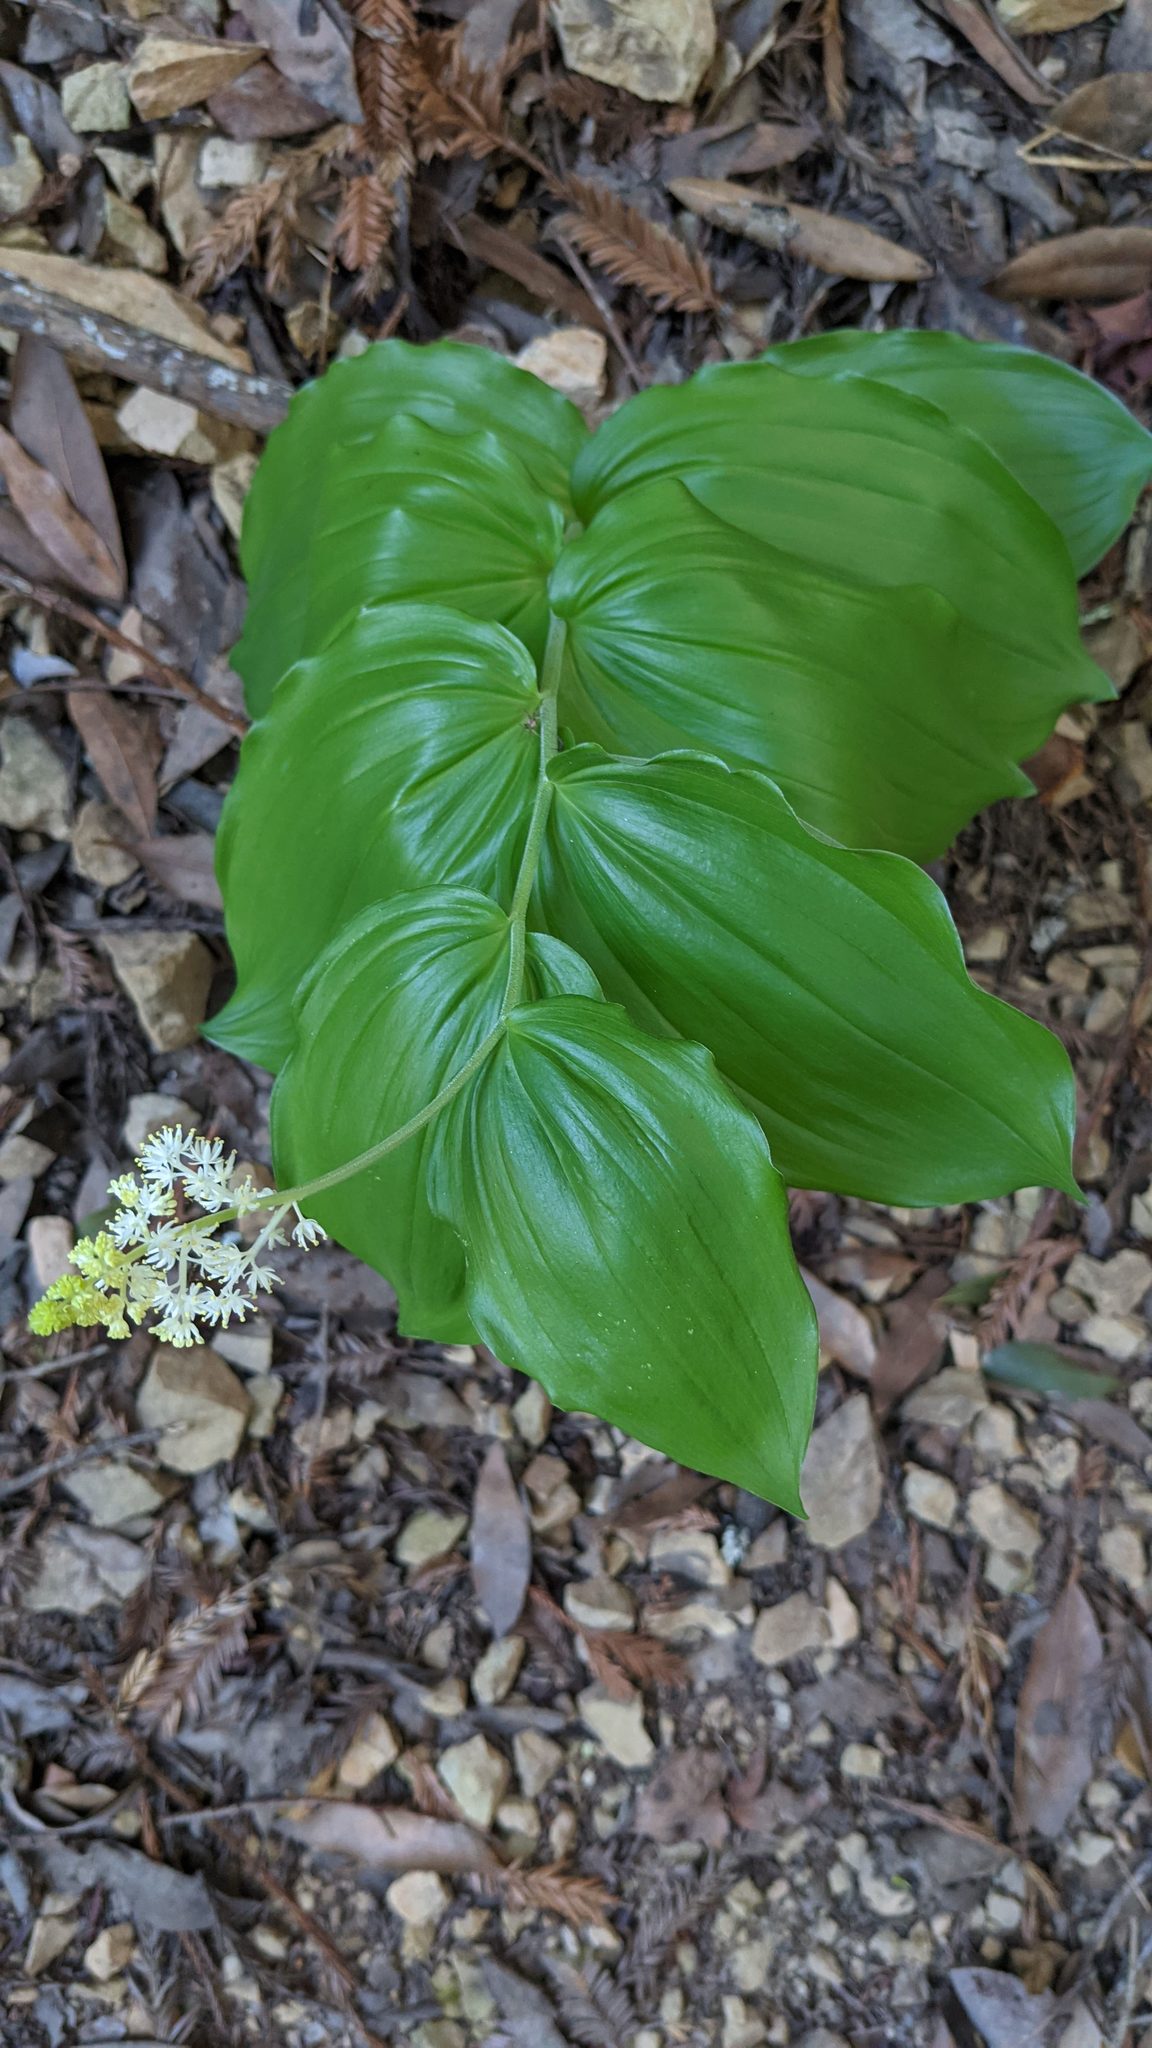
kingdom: Plantae
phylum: Tracheophyta
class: Liliopsida
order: Asparagales
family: Asparagaceae
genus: Maianthemum
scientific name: Maianthemum racemosum
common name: False spikenard
